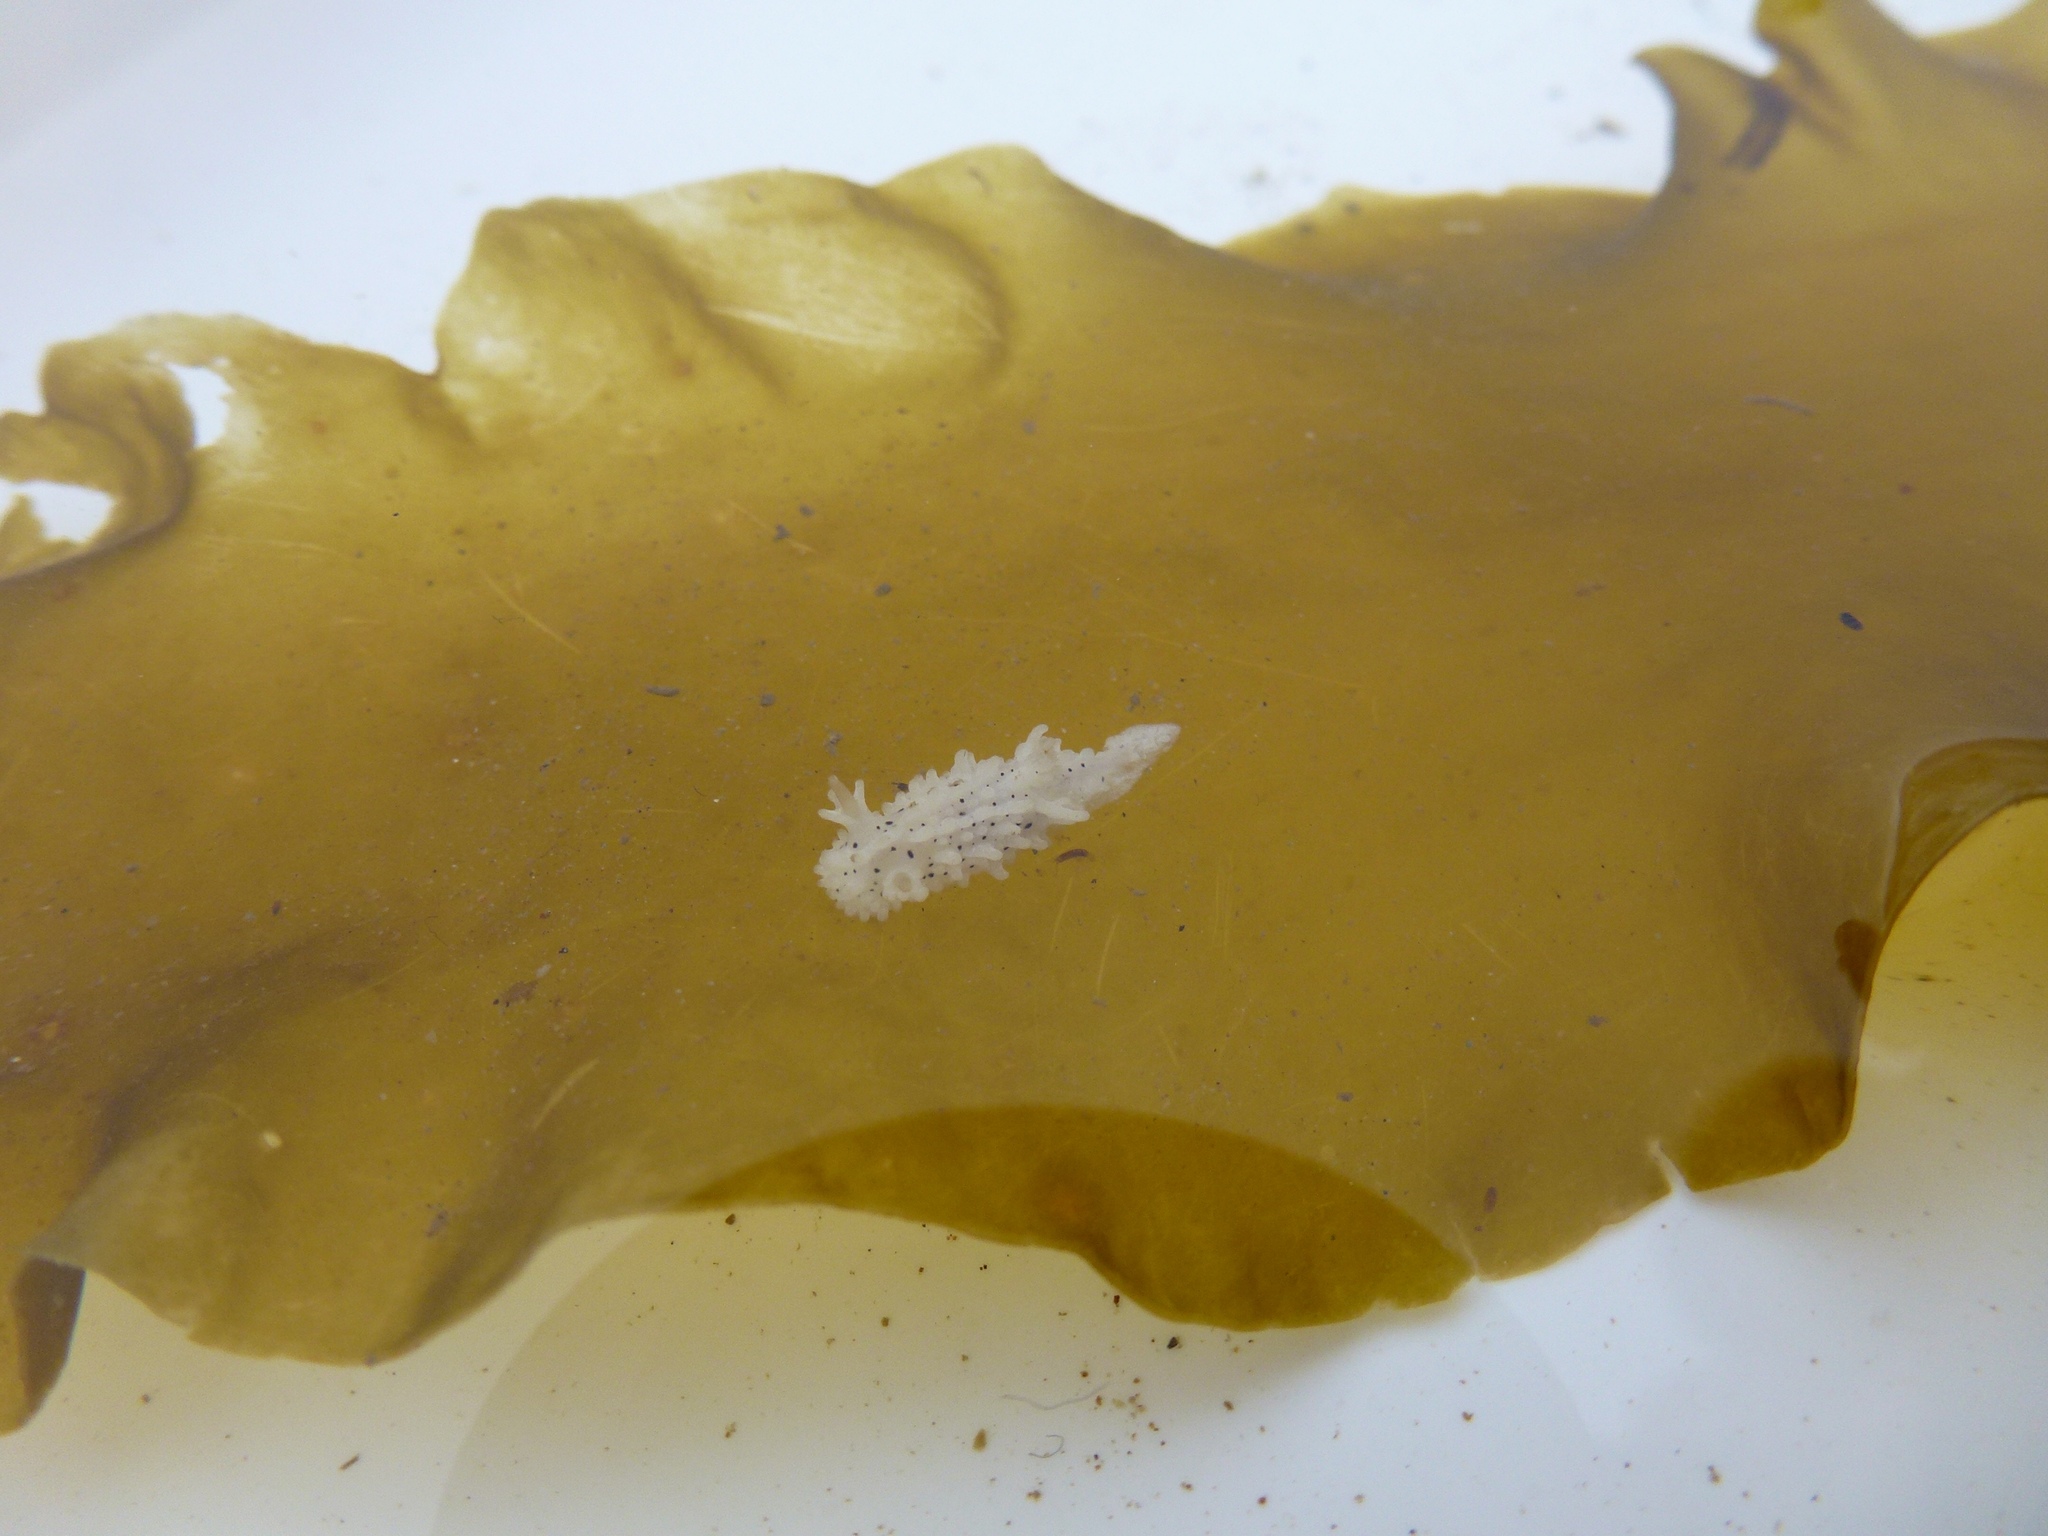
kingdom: Animalia
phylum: Mollusca
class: Gastropoda
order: Nudibranchia
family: Aegiridae
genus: Aegires
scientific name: Aegires albopunctatus
